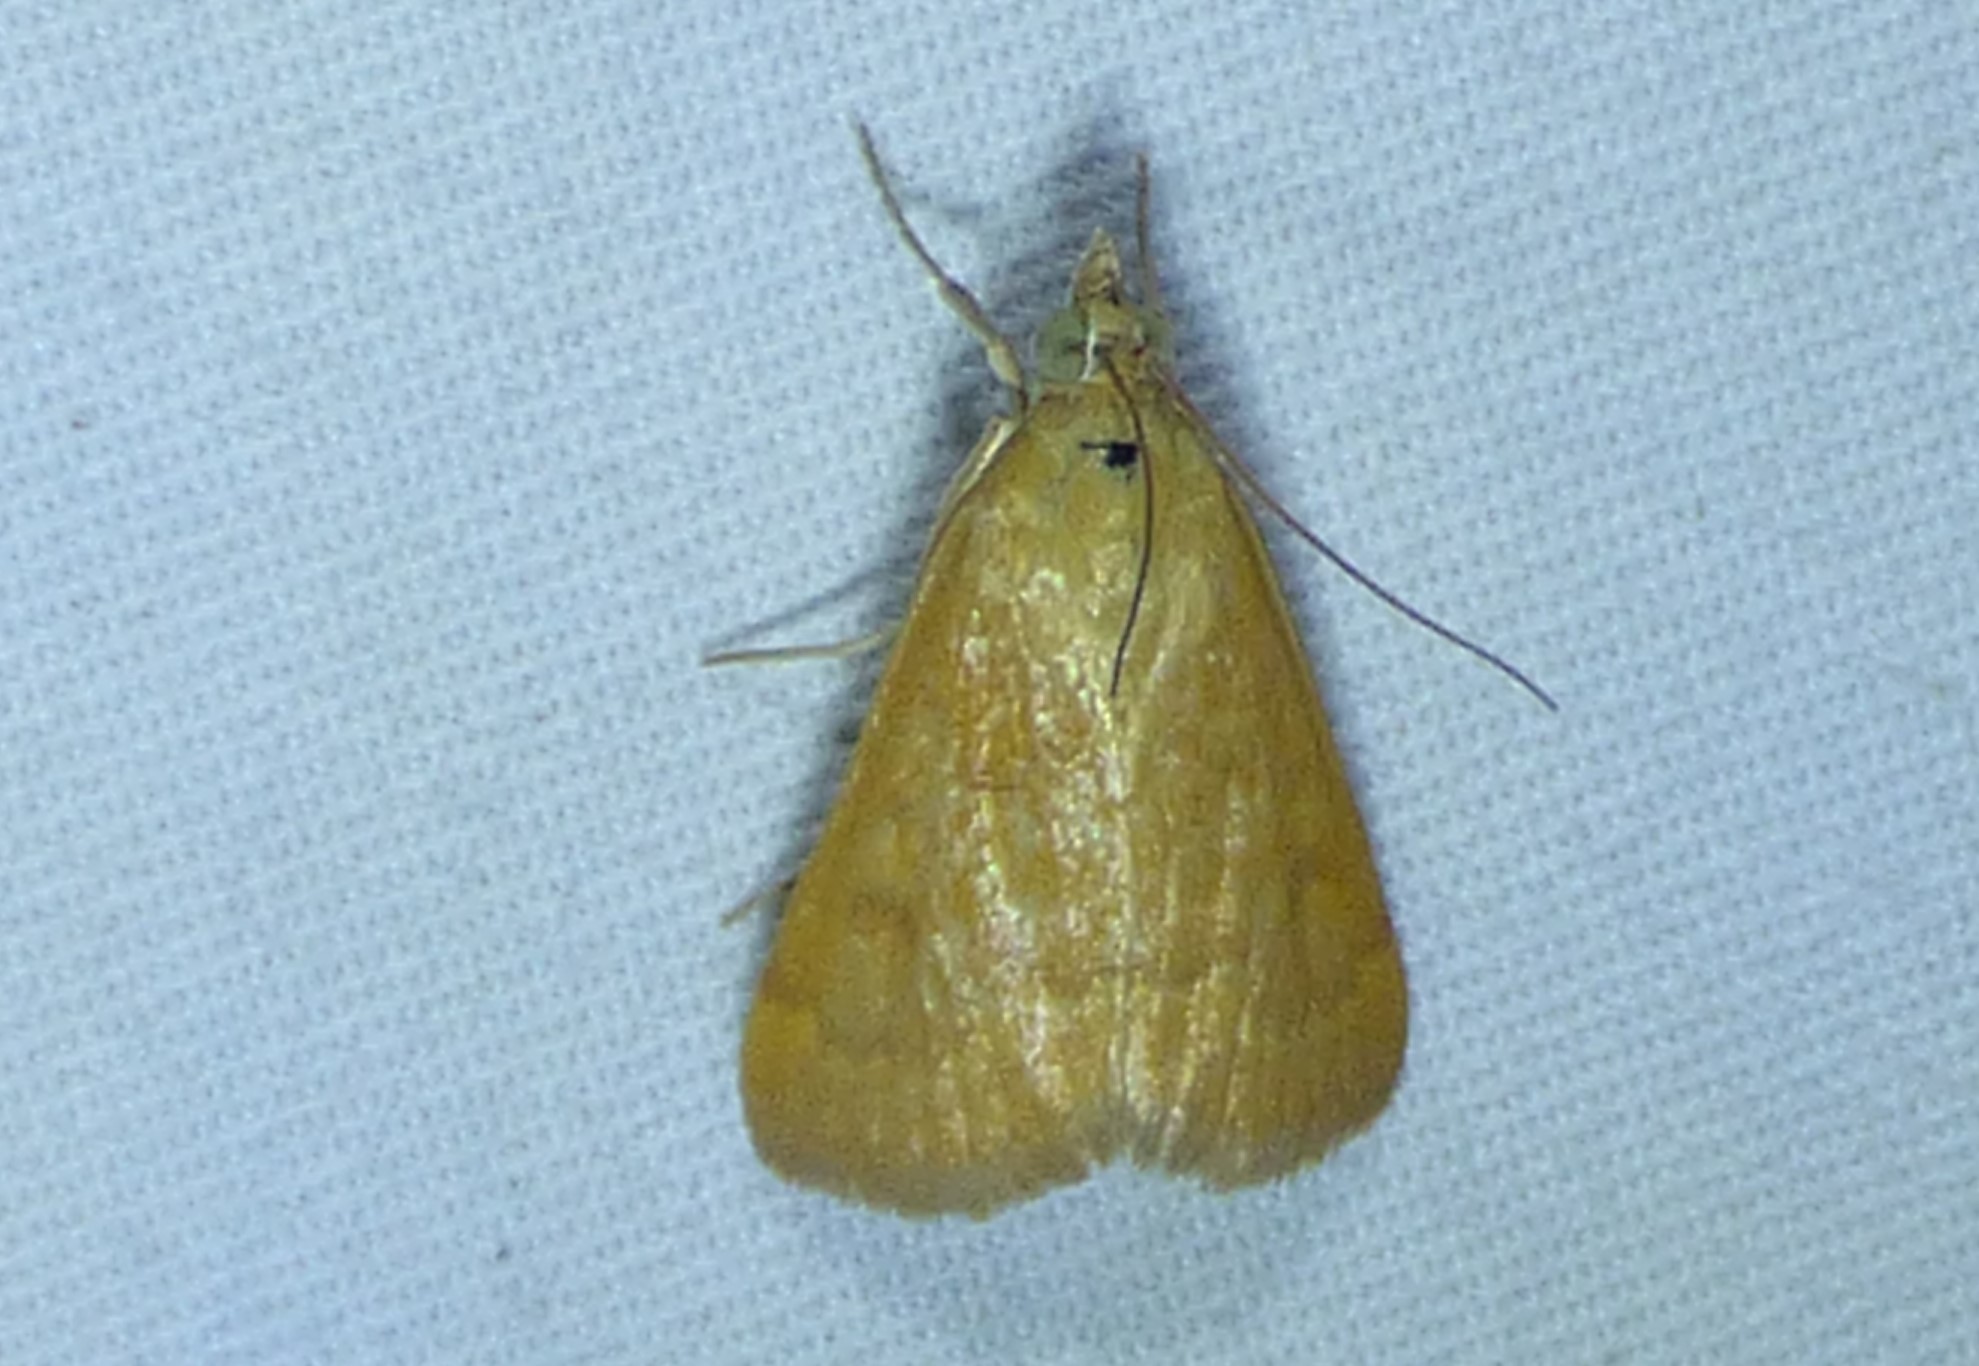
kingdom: Animalia
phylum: Arthropoda
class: Insecta
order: Lepidoptera
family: Crambidae
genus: Achyra
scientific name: Achyra rantalis
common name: Garden webworm
